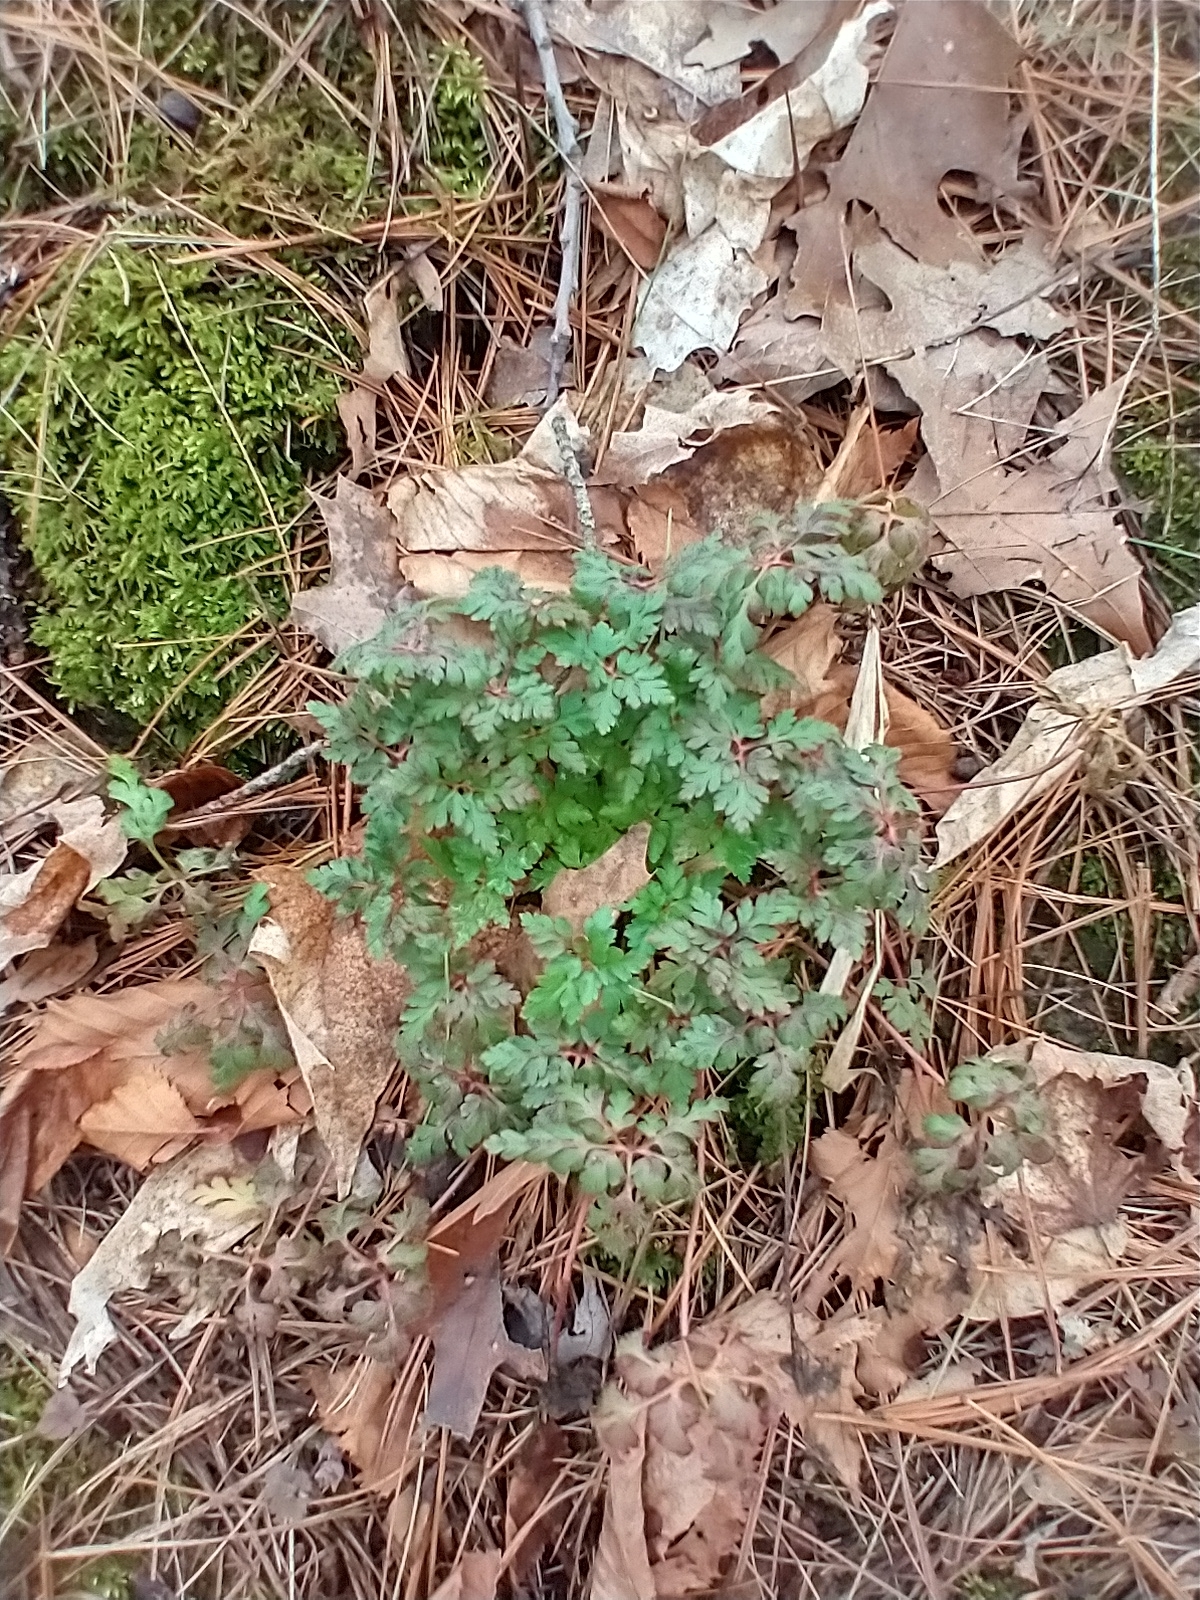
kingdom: Plantae
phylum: Tracheophyta
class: Magnoliopsida
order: Geraniales
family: Geraniaceae
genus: Geranium
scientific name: Geranium robertianum
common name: Herb-robert
